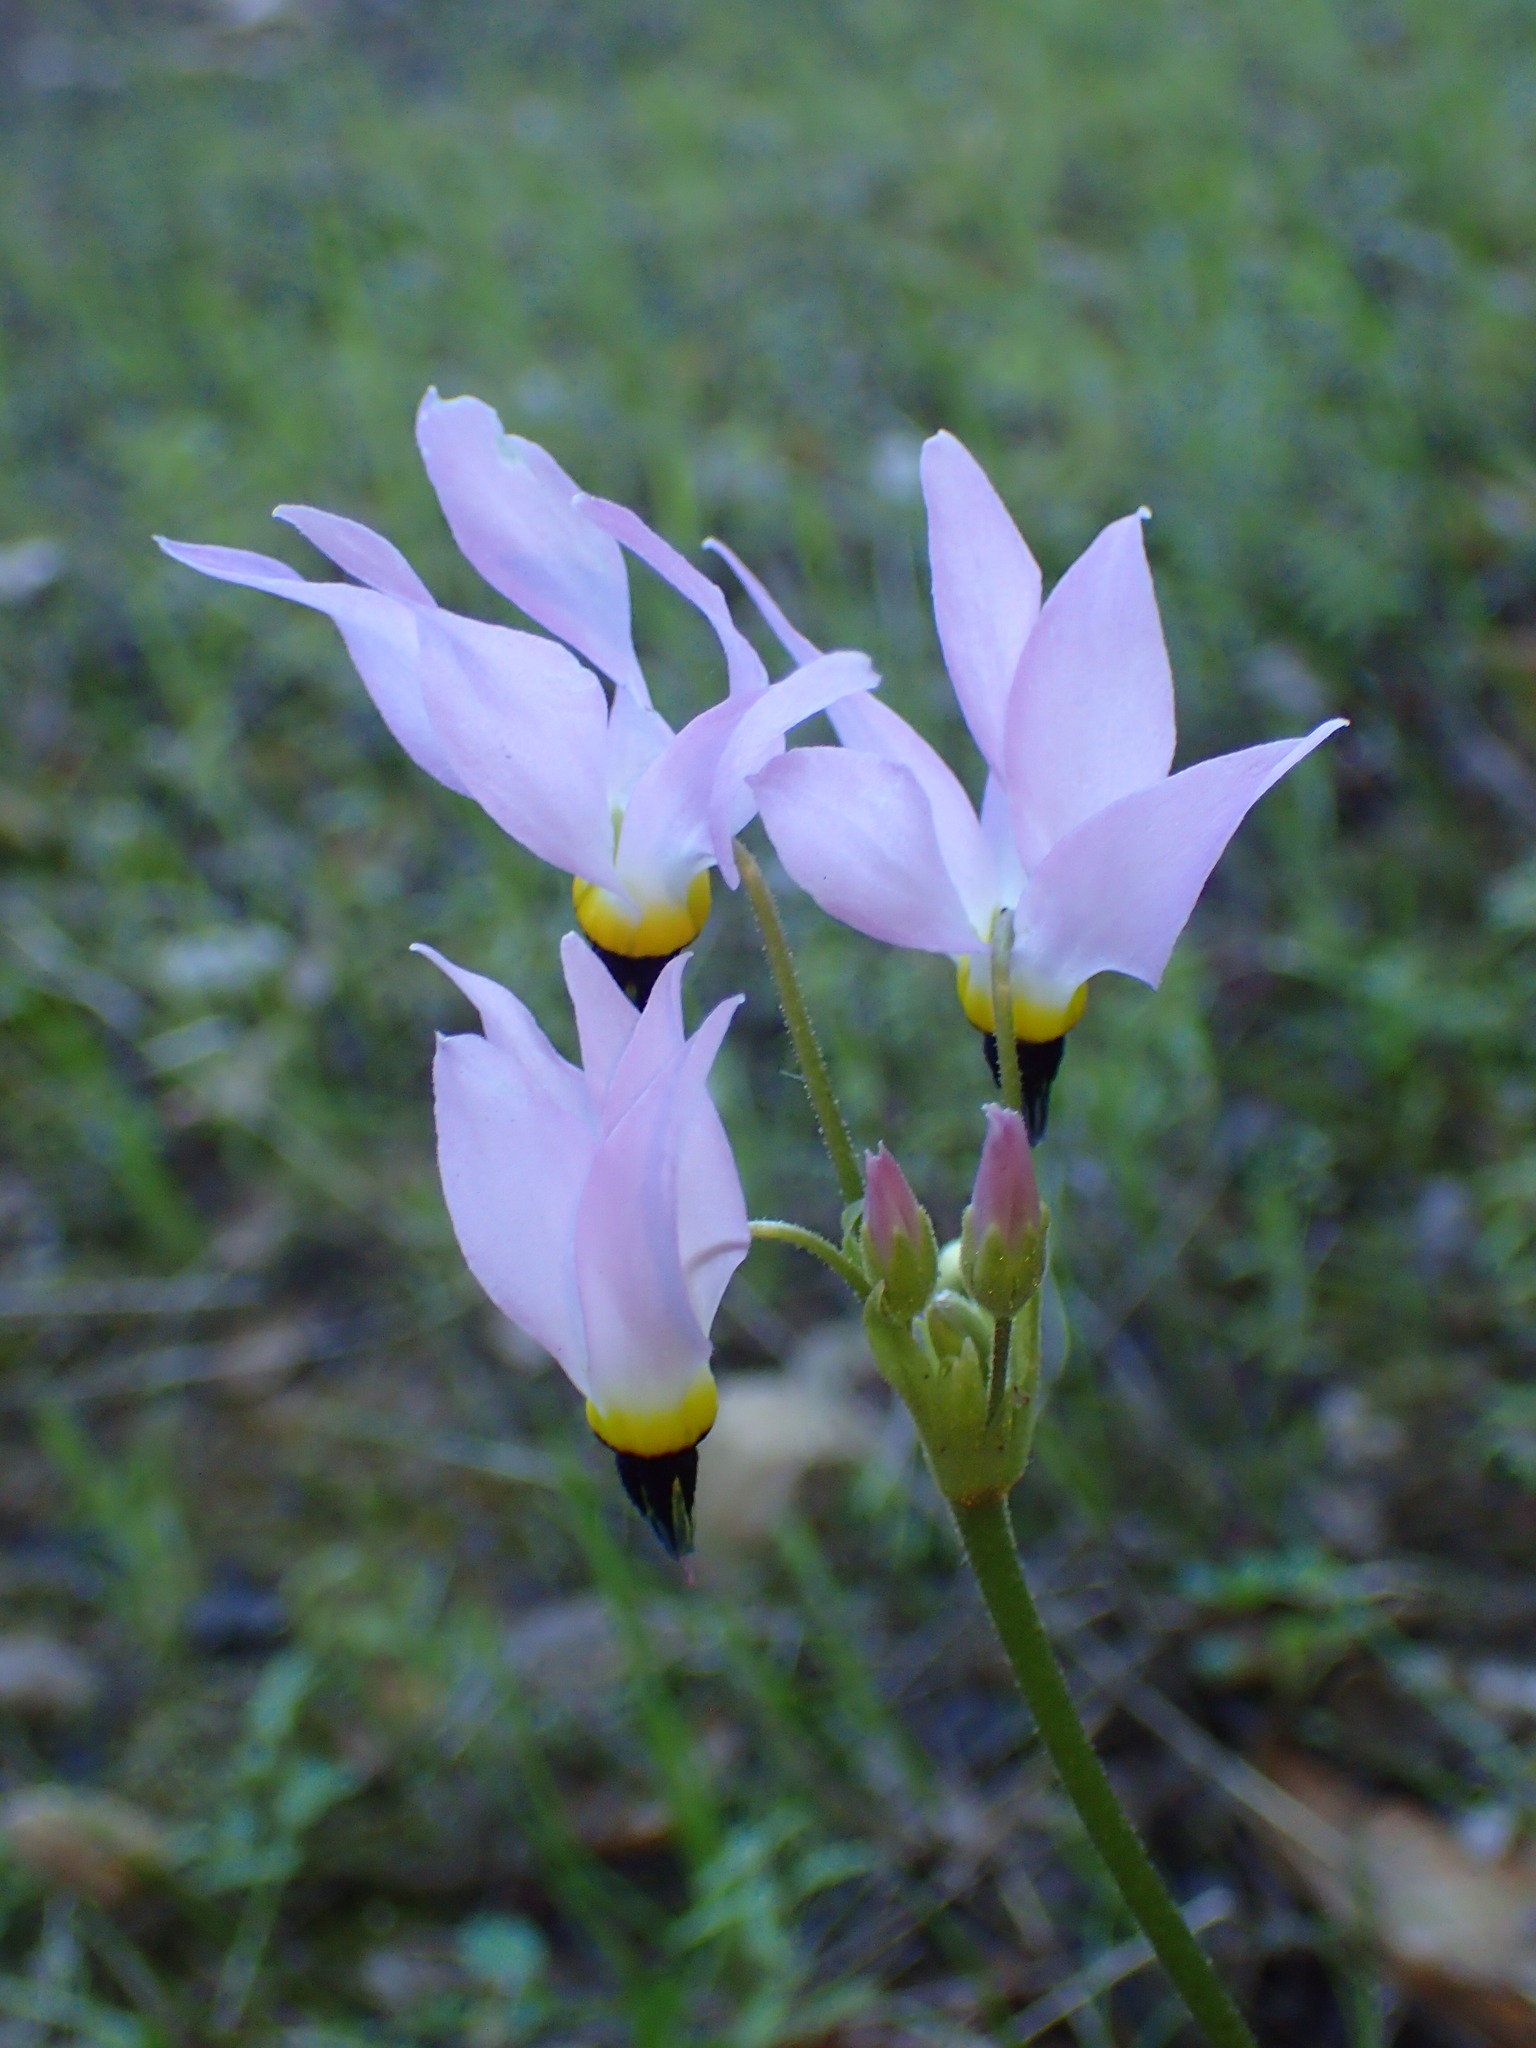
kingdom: Plantae
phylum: Tracheophyta
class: Magnoliopsida
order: Ericales
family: Primulaceae
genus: Dodecatheon
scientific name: Dodecatheon clevelandii
